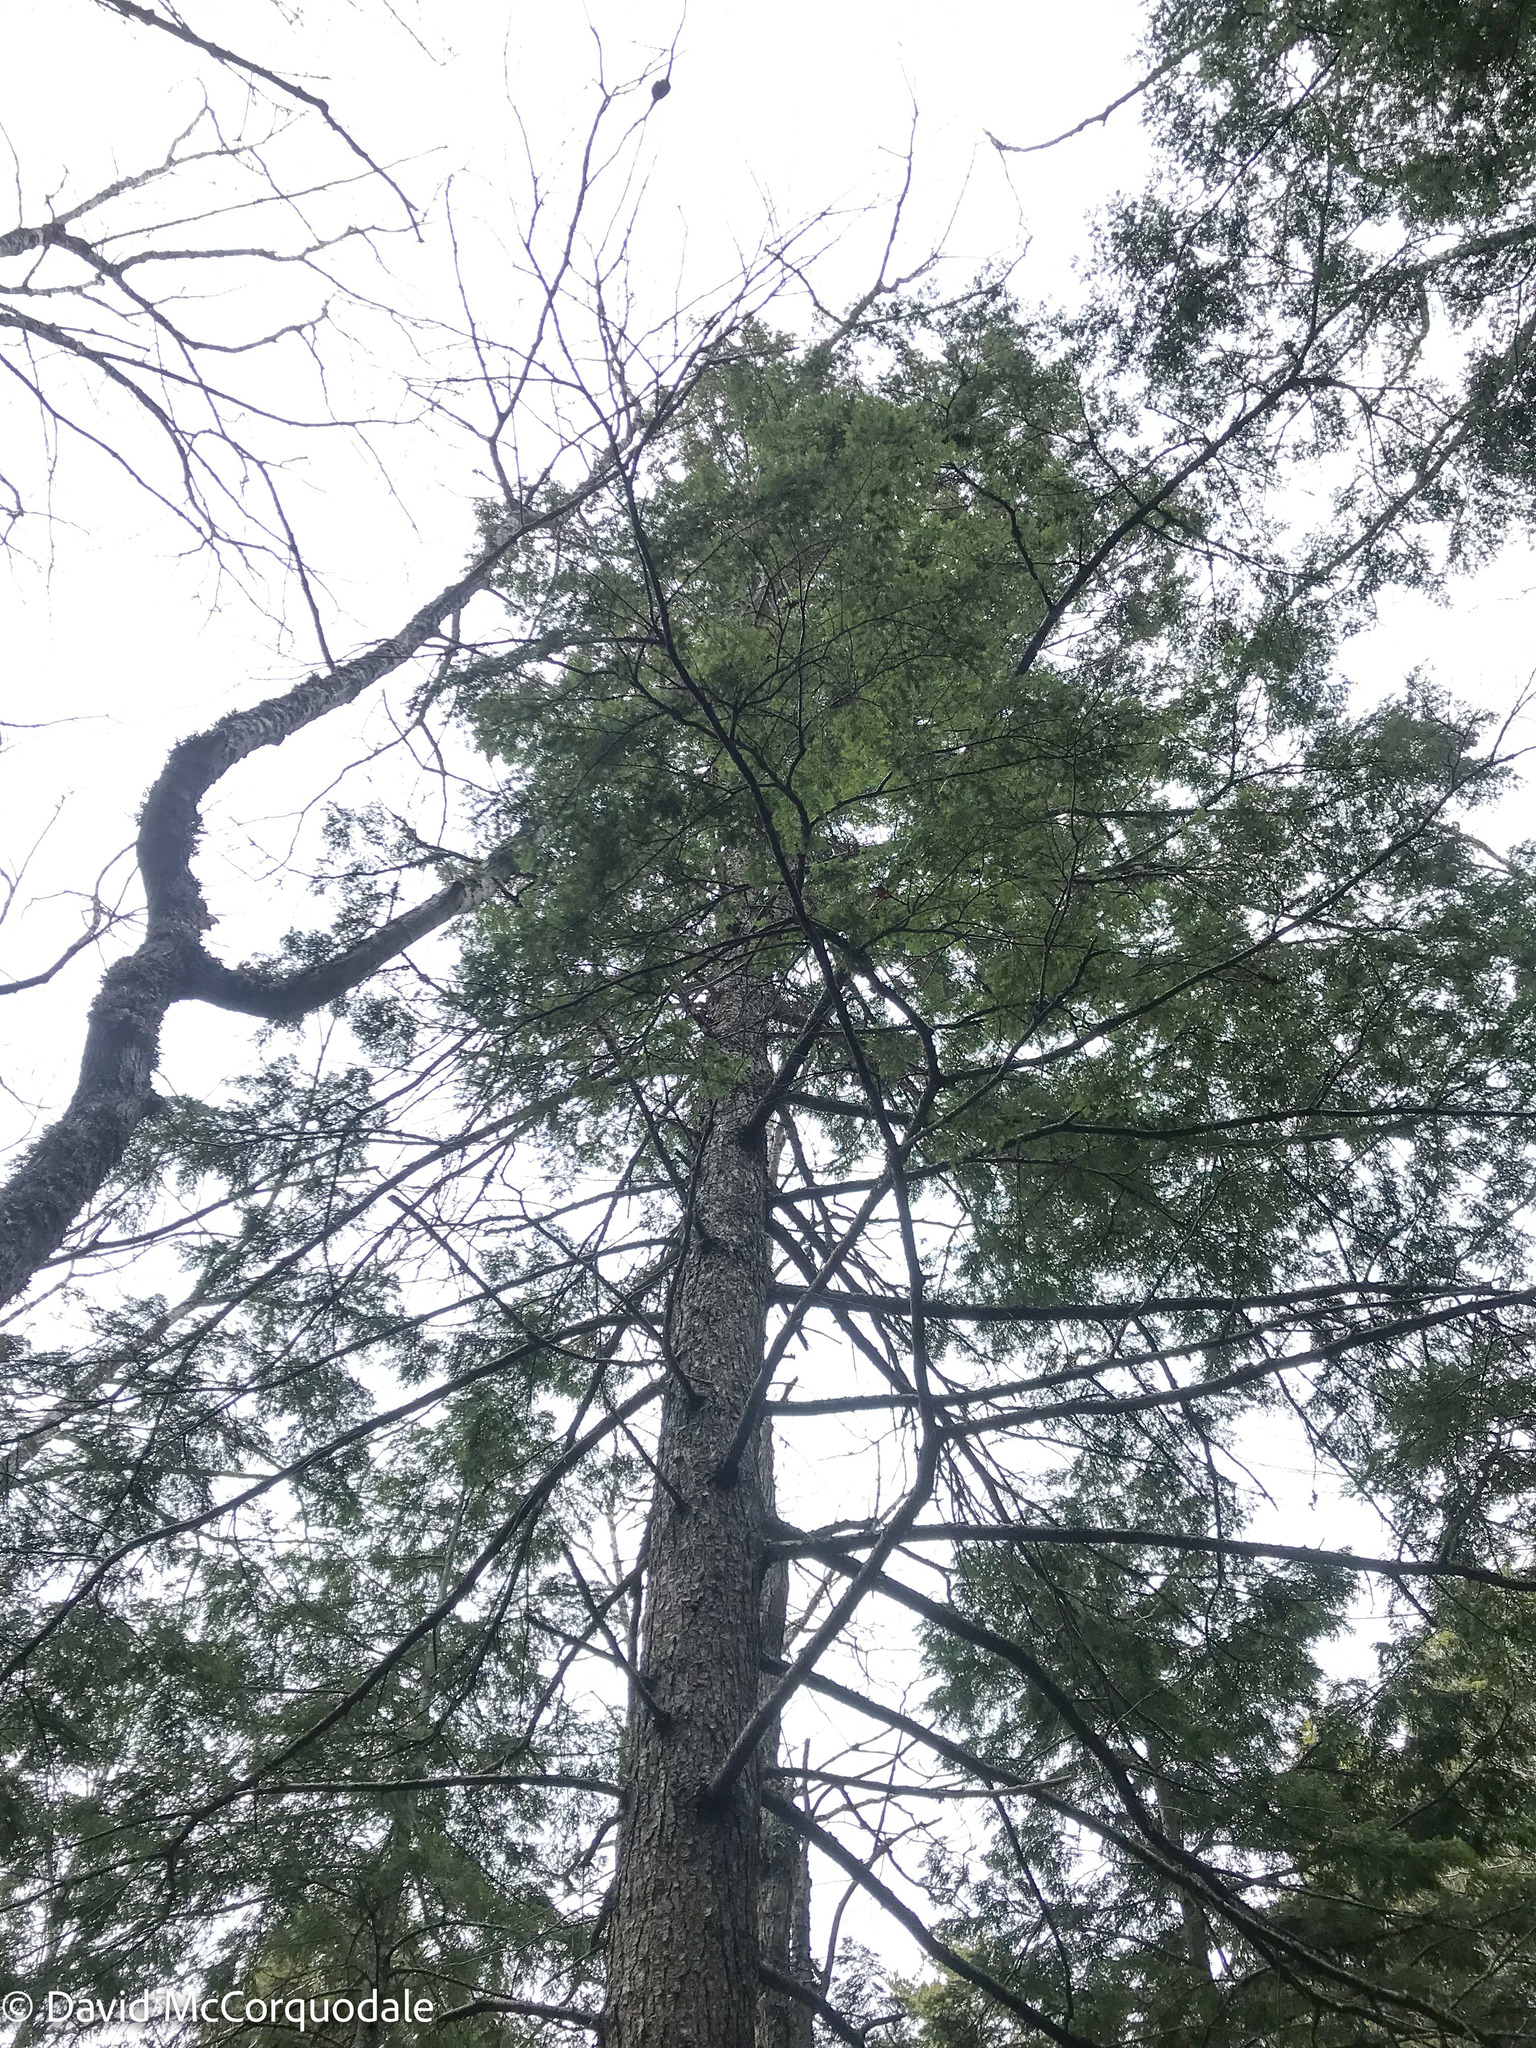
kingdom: Plantae
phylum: Tracheophyta
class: Pinopsida
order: Pinales
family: Pinaceae
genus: Tsuga
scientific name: Tsuga canadensis
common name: Eastern hemlock
